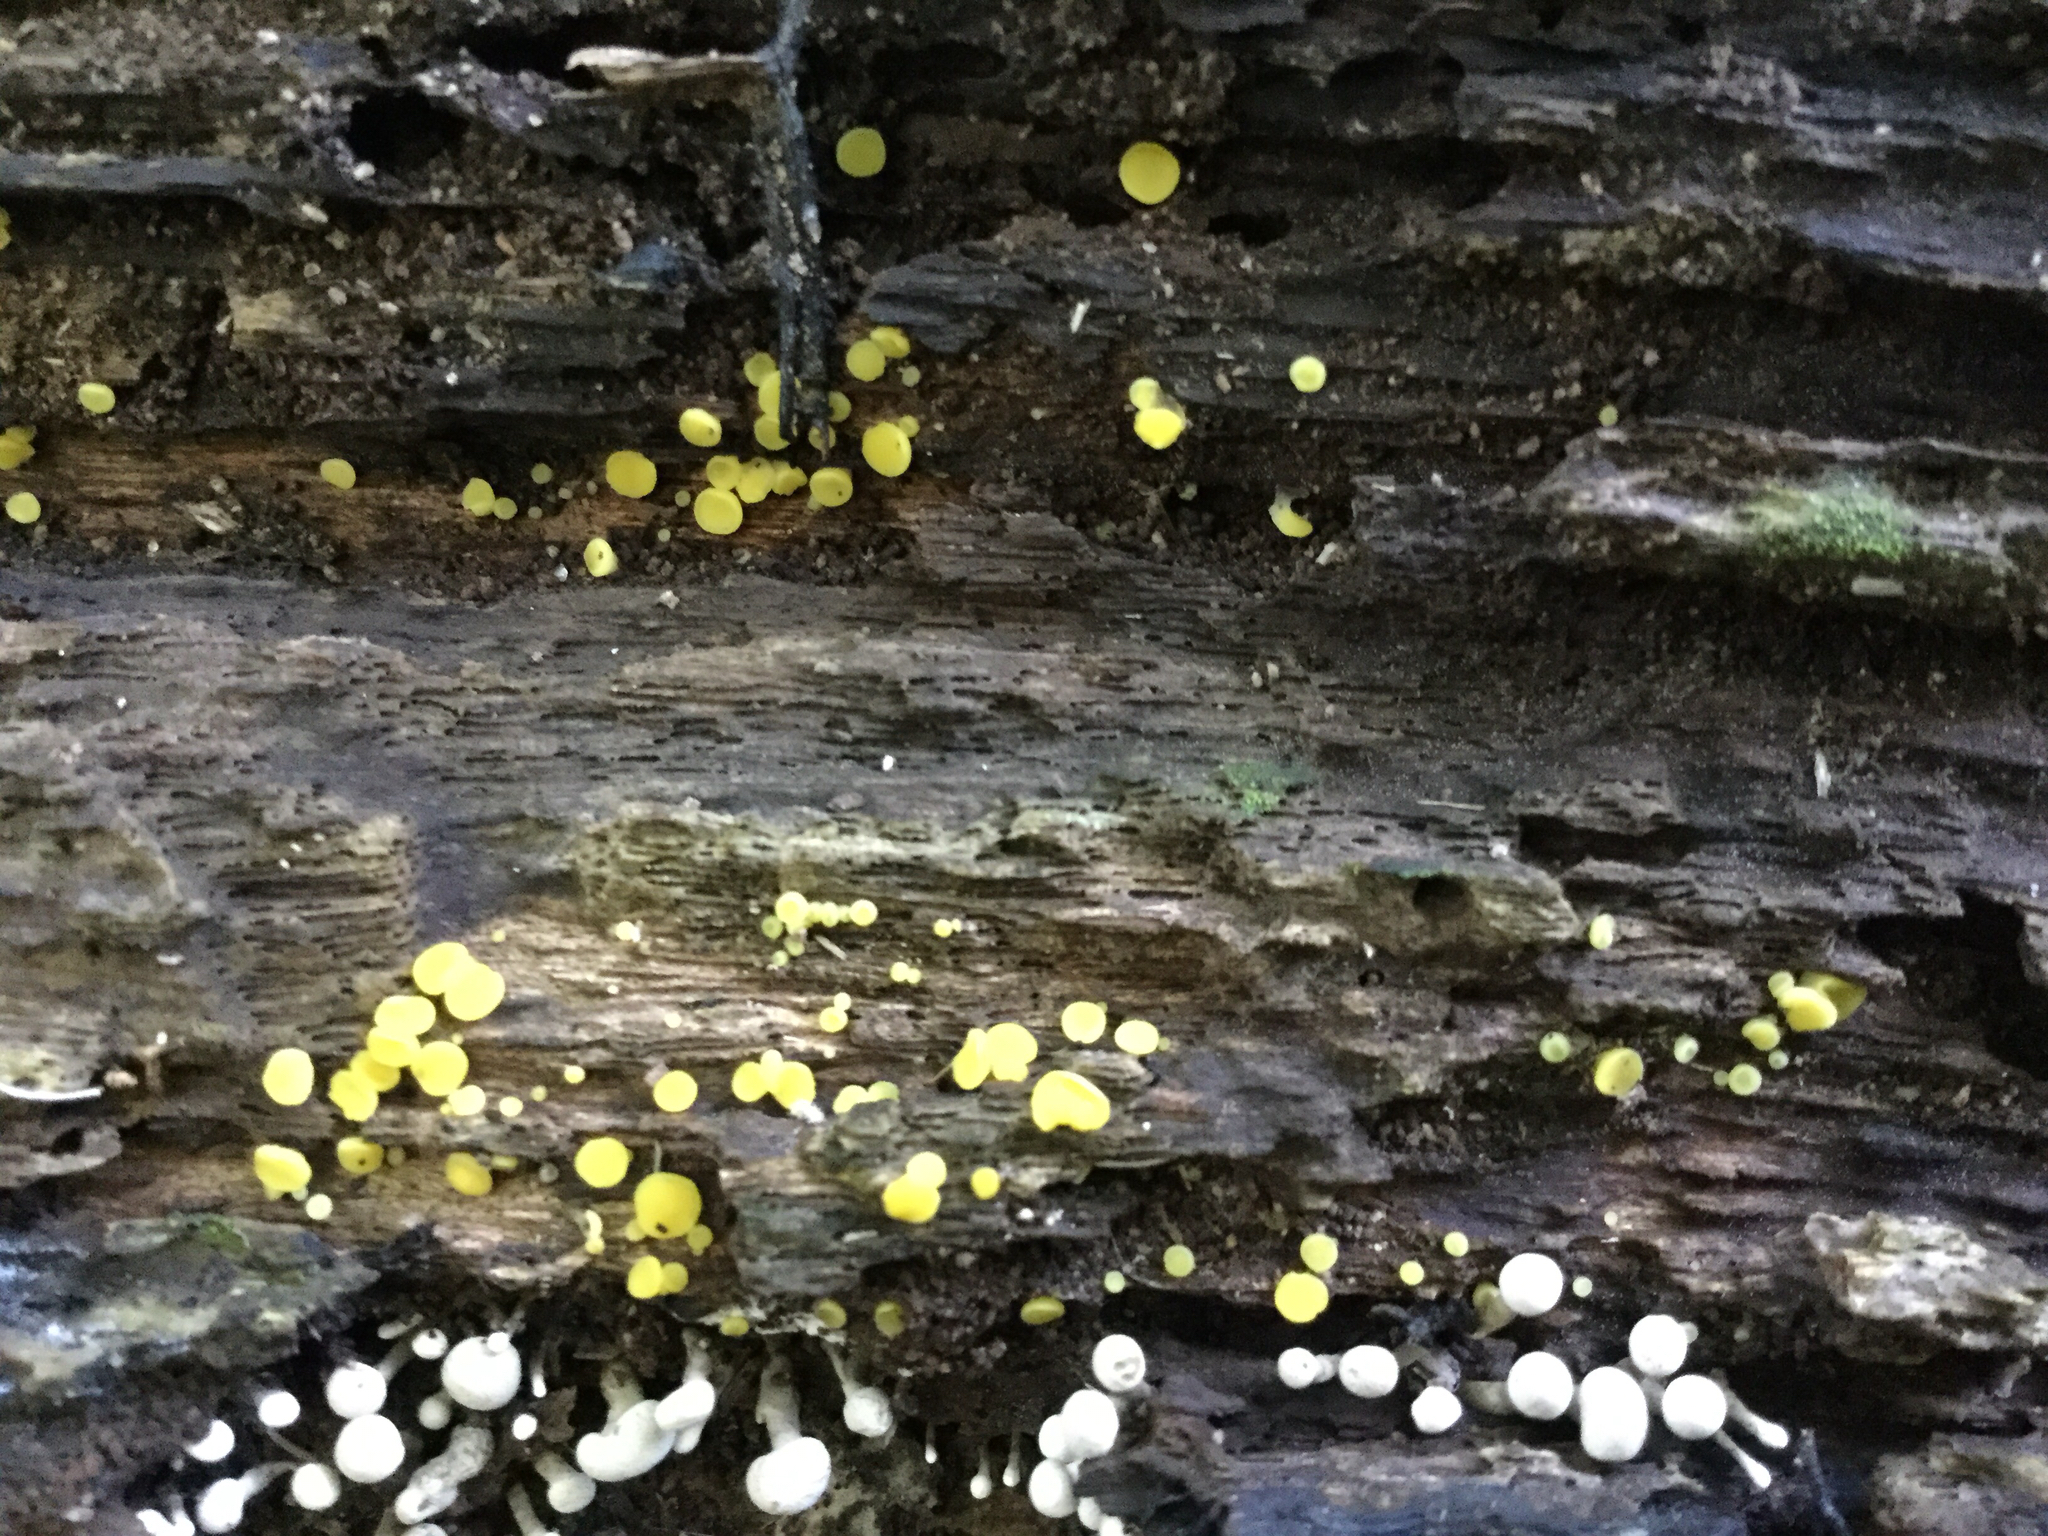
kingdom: Fungi
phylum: Ascomycota
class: Leotiomycetes
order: Helotiales
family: Pezizellaceae
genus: Calycina
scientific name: Calycina citrina
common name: Yellow fairy cups
